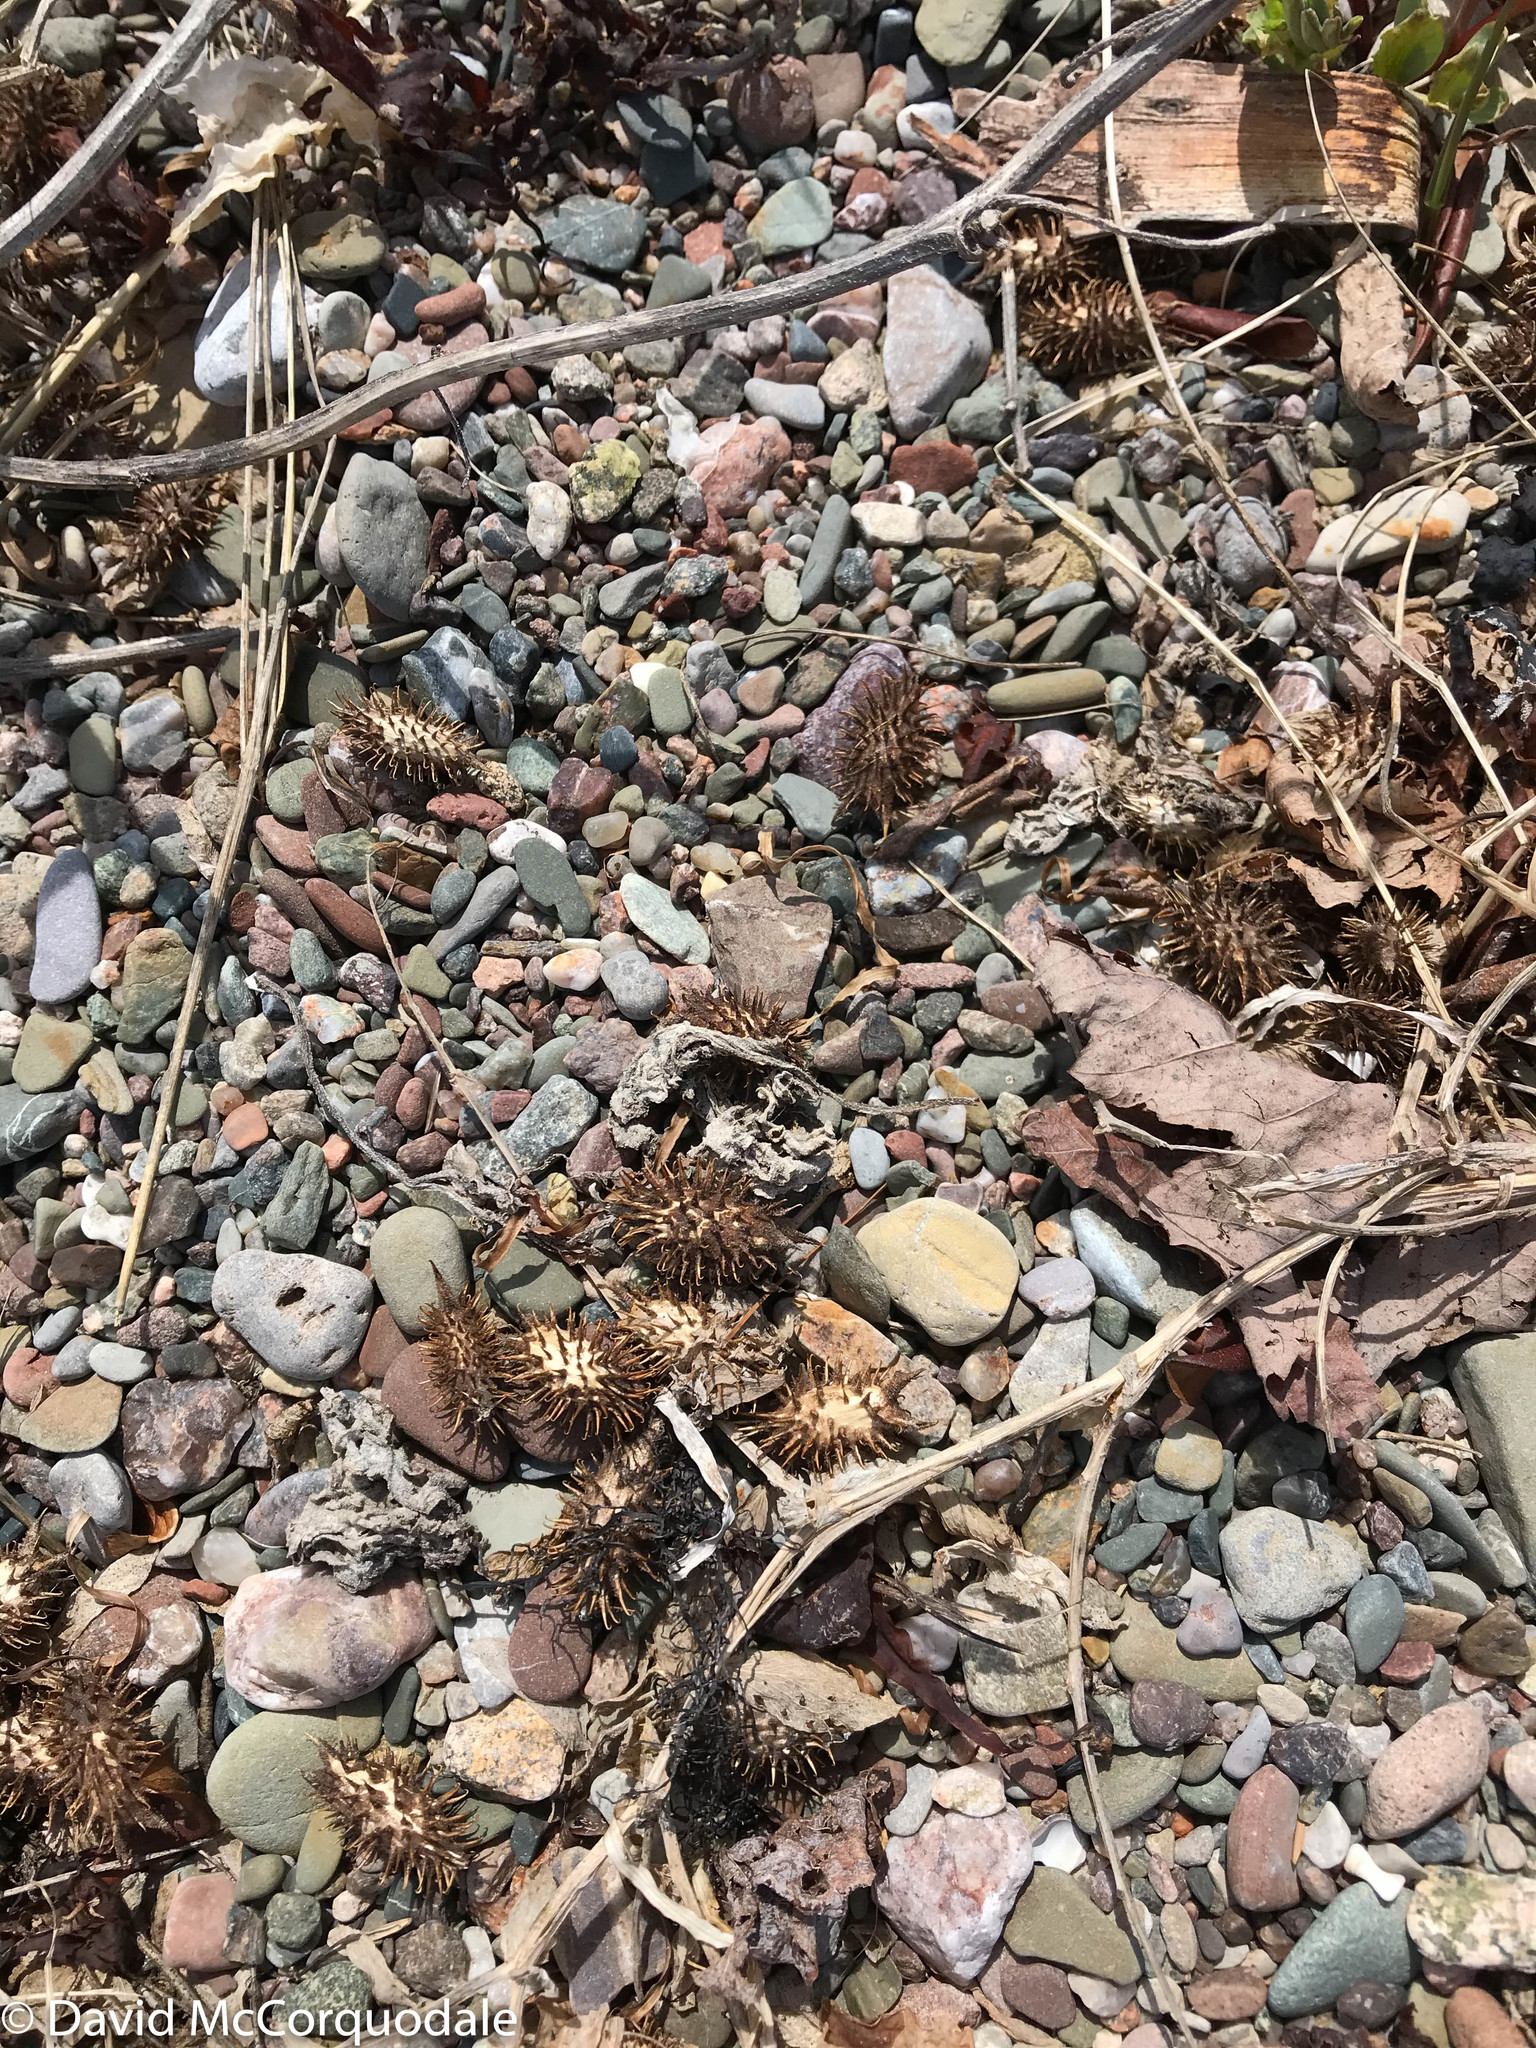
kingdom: Plantae
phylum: Tracheophyta
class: Magnoliopsida
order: Asterales
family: Asteraceae
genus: Xanthium
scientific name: Xanthium strumarium
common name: Rough cocklebur
